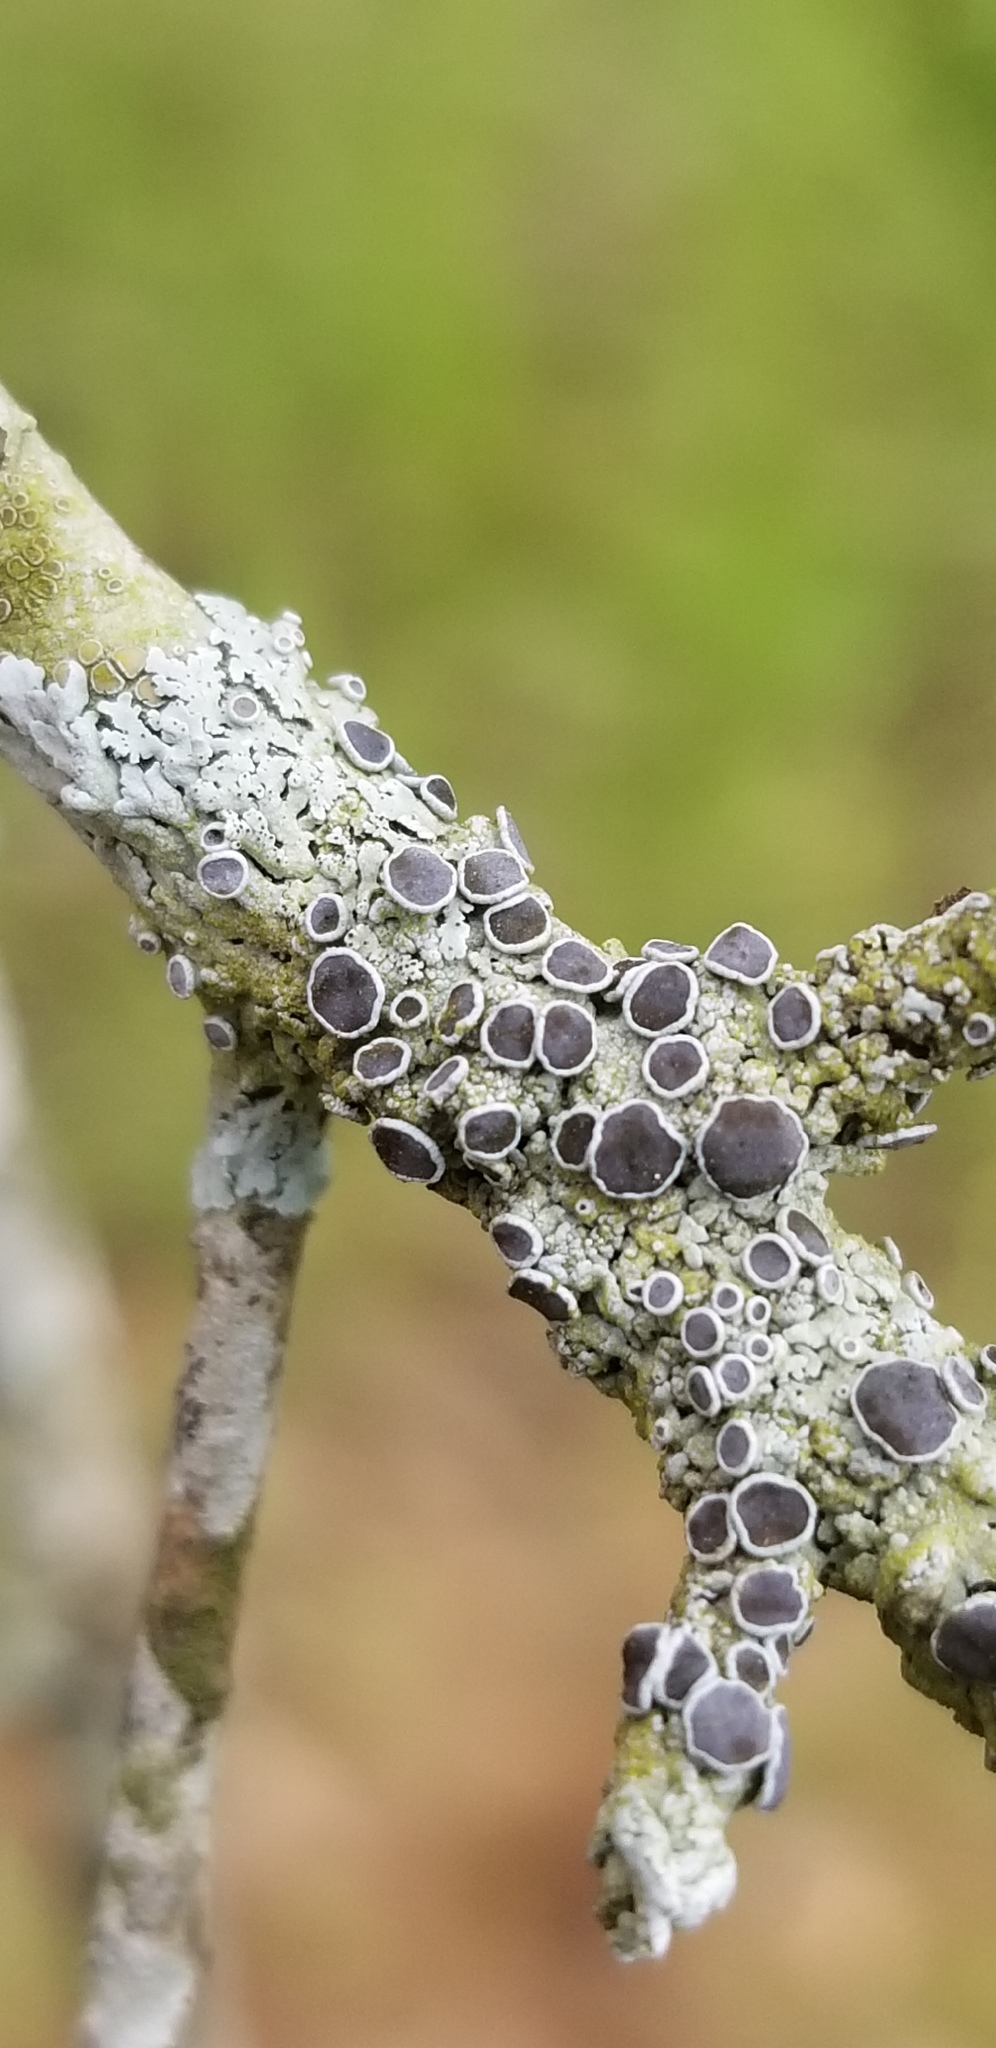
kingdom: Fungi
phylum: Ascomycota
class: Lecanoromycetes
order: Caliciales
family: Physciaceae
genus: Physcia
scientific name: Physcia pumilior
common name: Lesser gray legs
